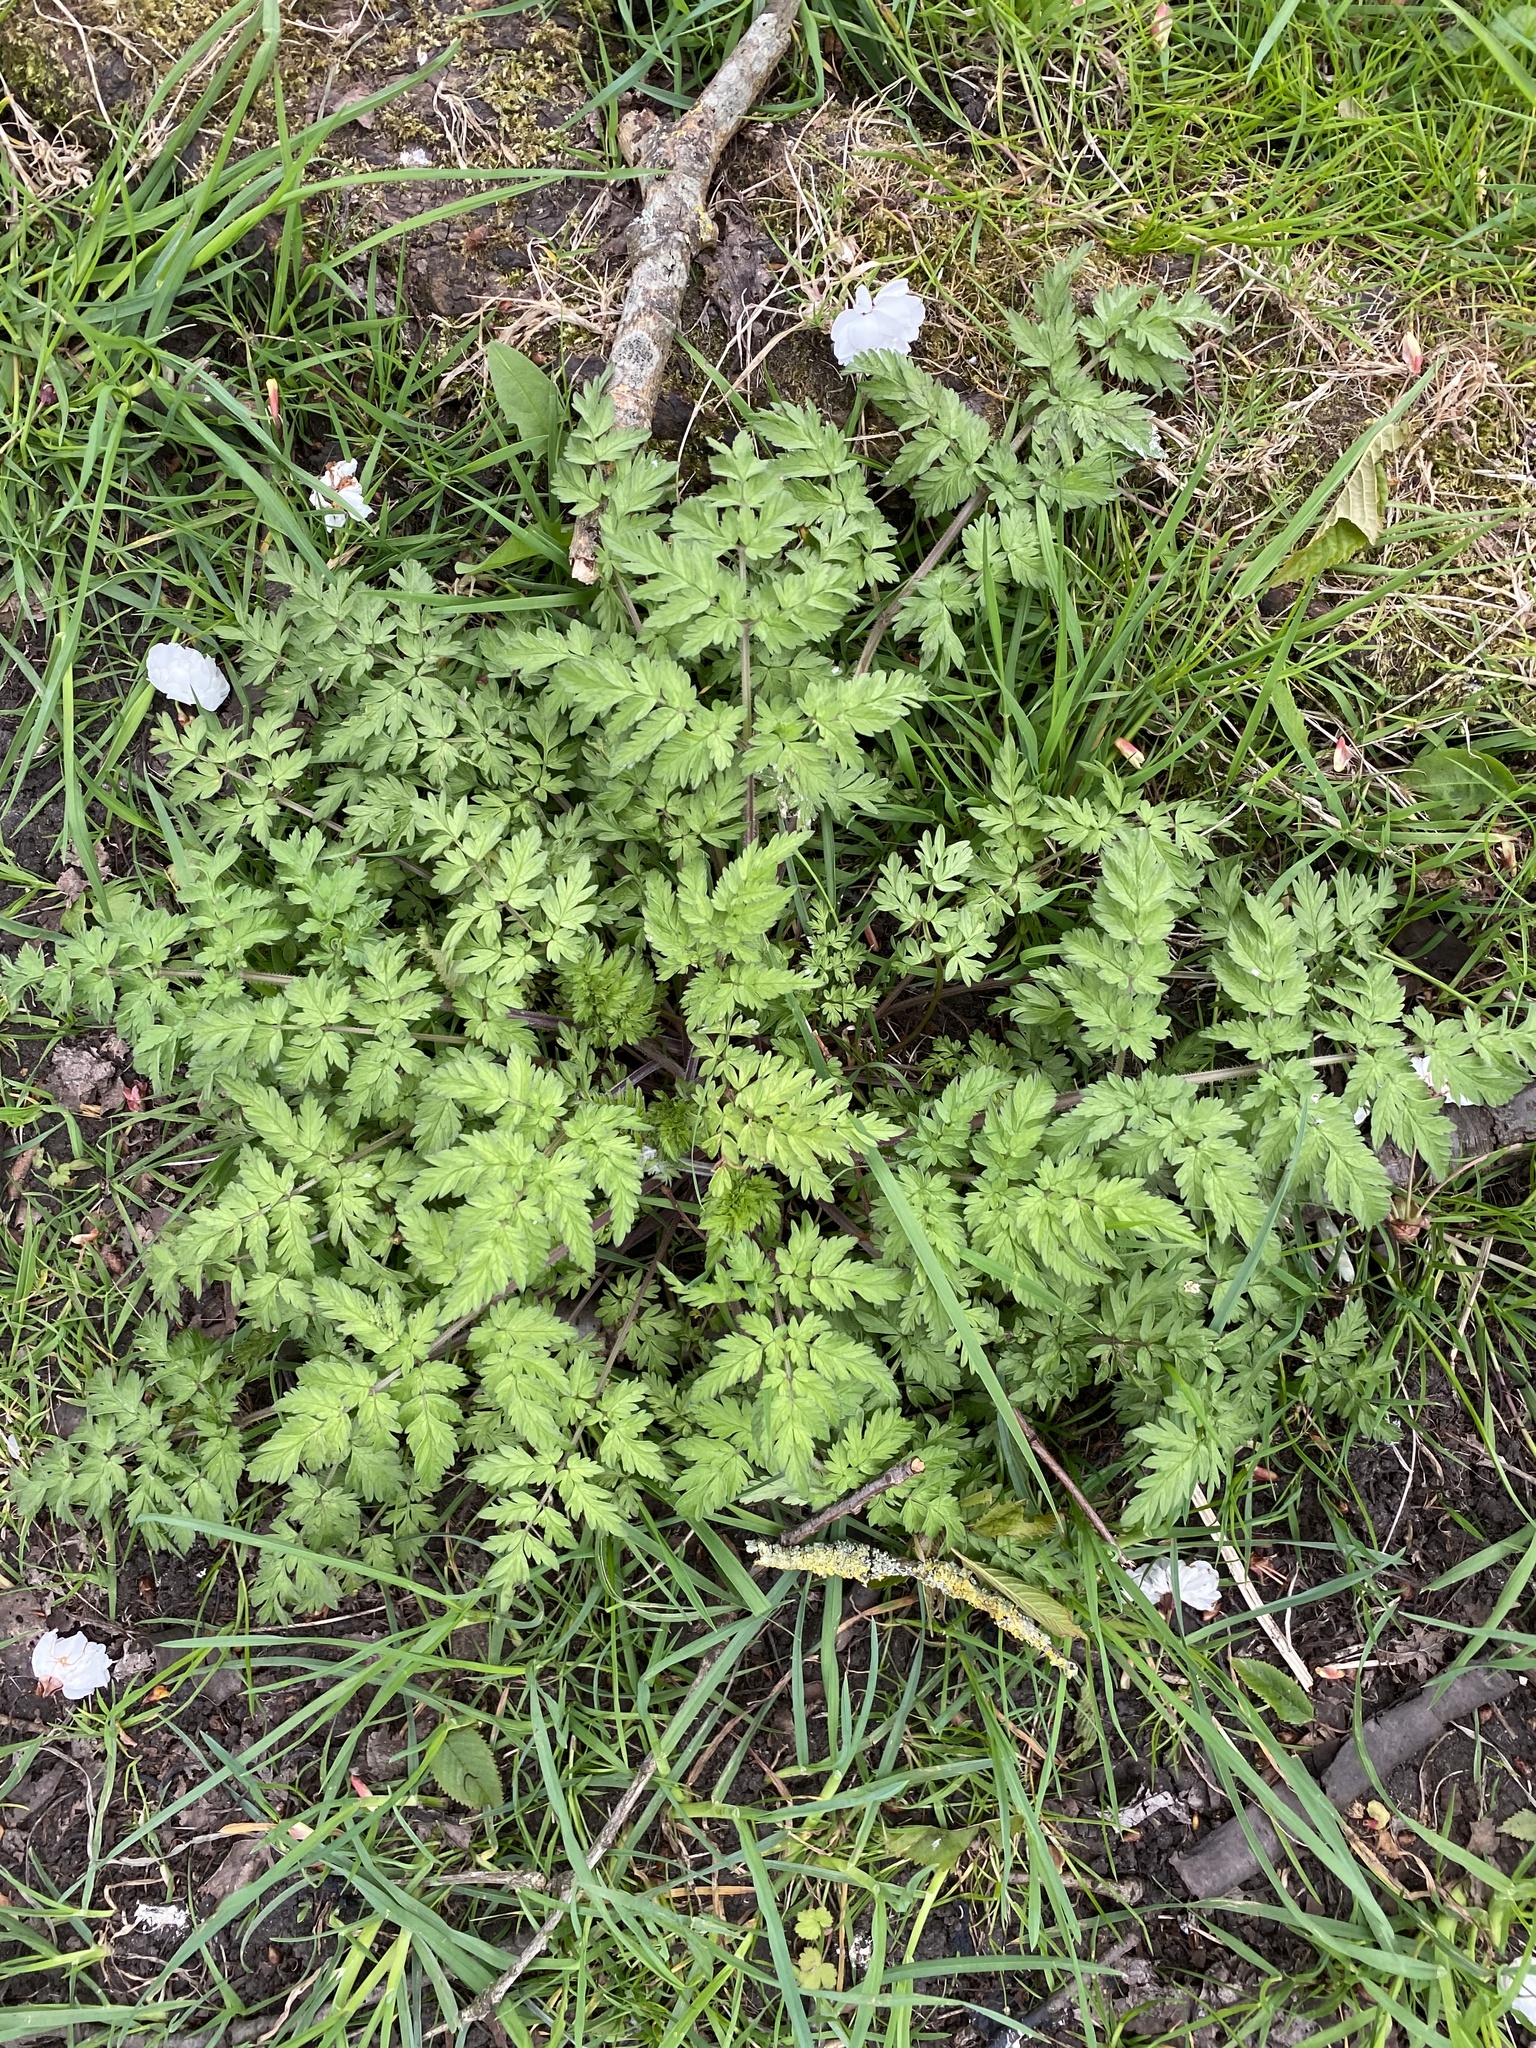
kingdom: Plantae
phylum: Tracheophyta
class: Magnoliopsida
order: Apiales
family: Apiaceae
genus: Anthriscus
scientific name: Anthriscus sylvestris
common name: Cow parsley
